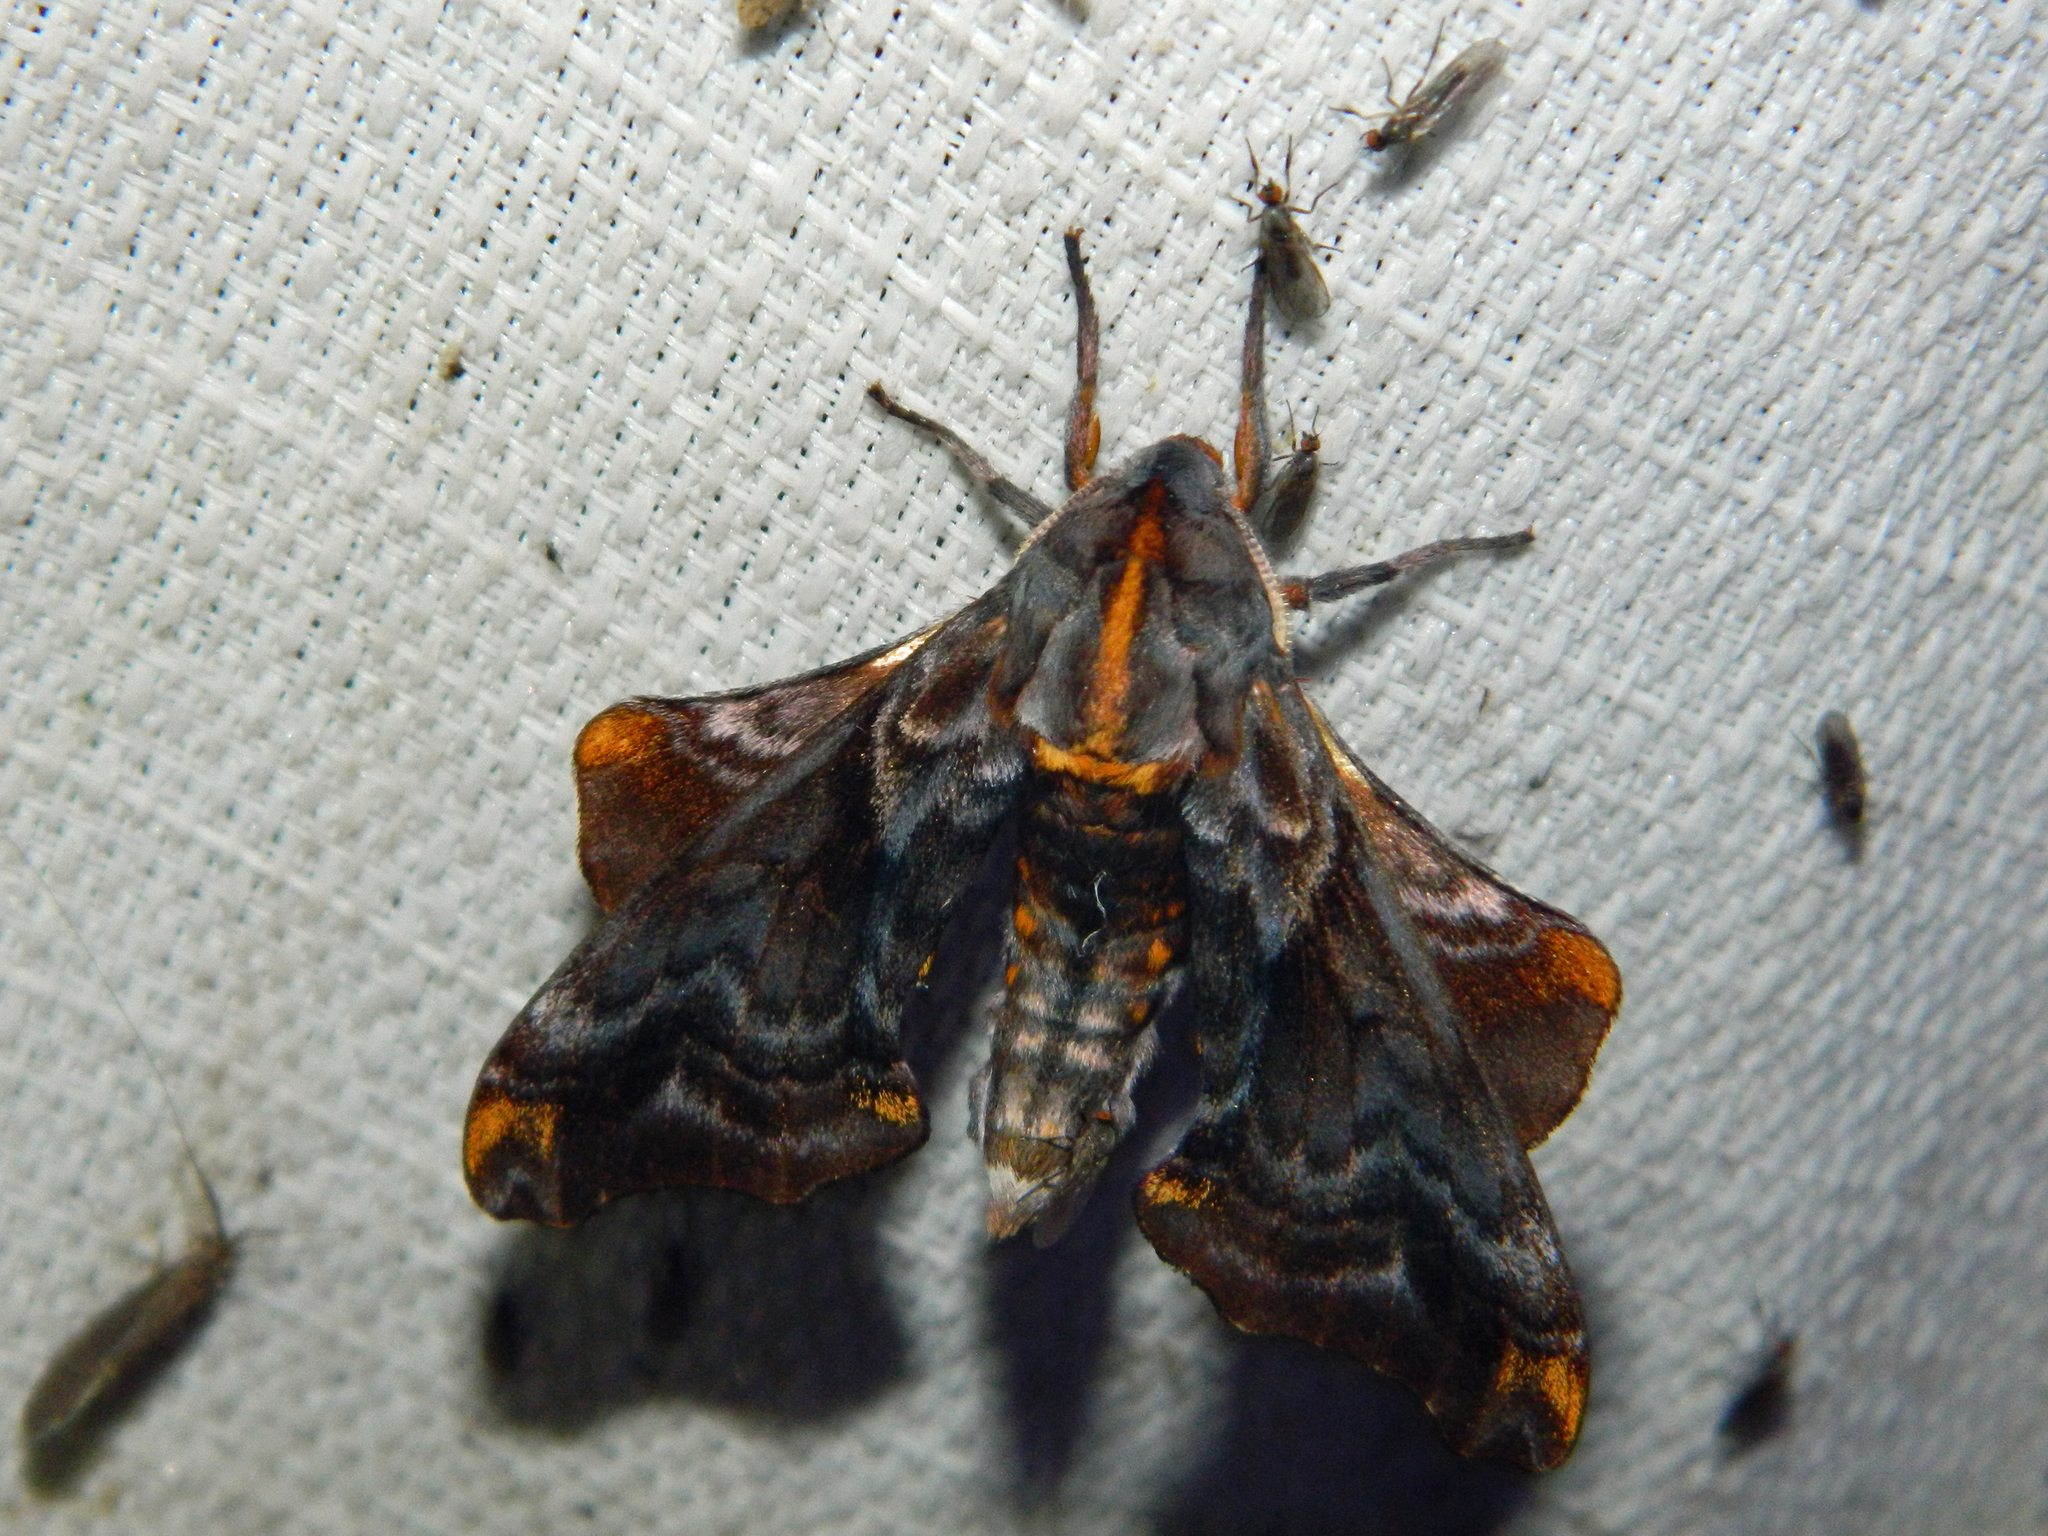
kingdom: Animalia
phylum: Arthropoda
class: Insecta
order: Lepidoptera
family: Sphingidae
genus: Paonias
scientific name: Paonias myops
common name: Small-eyed sphinx
